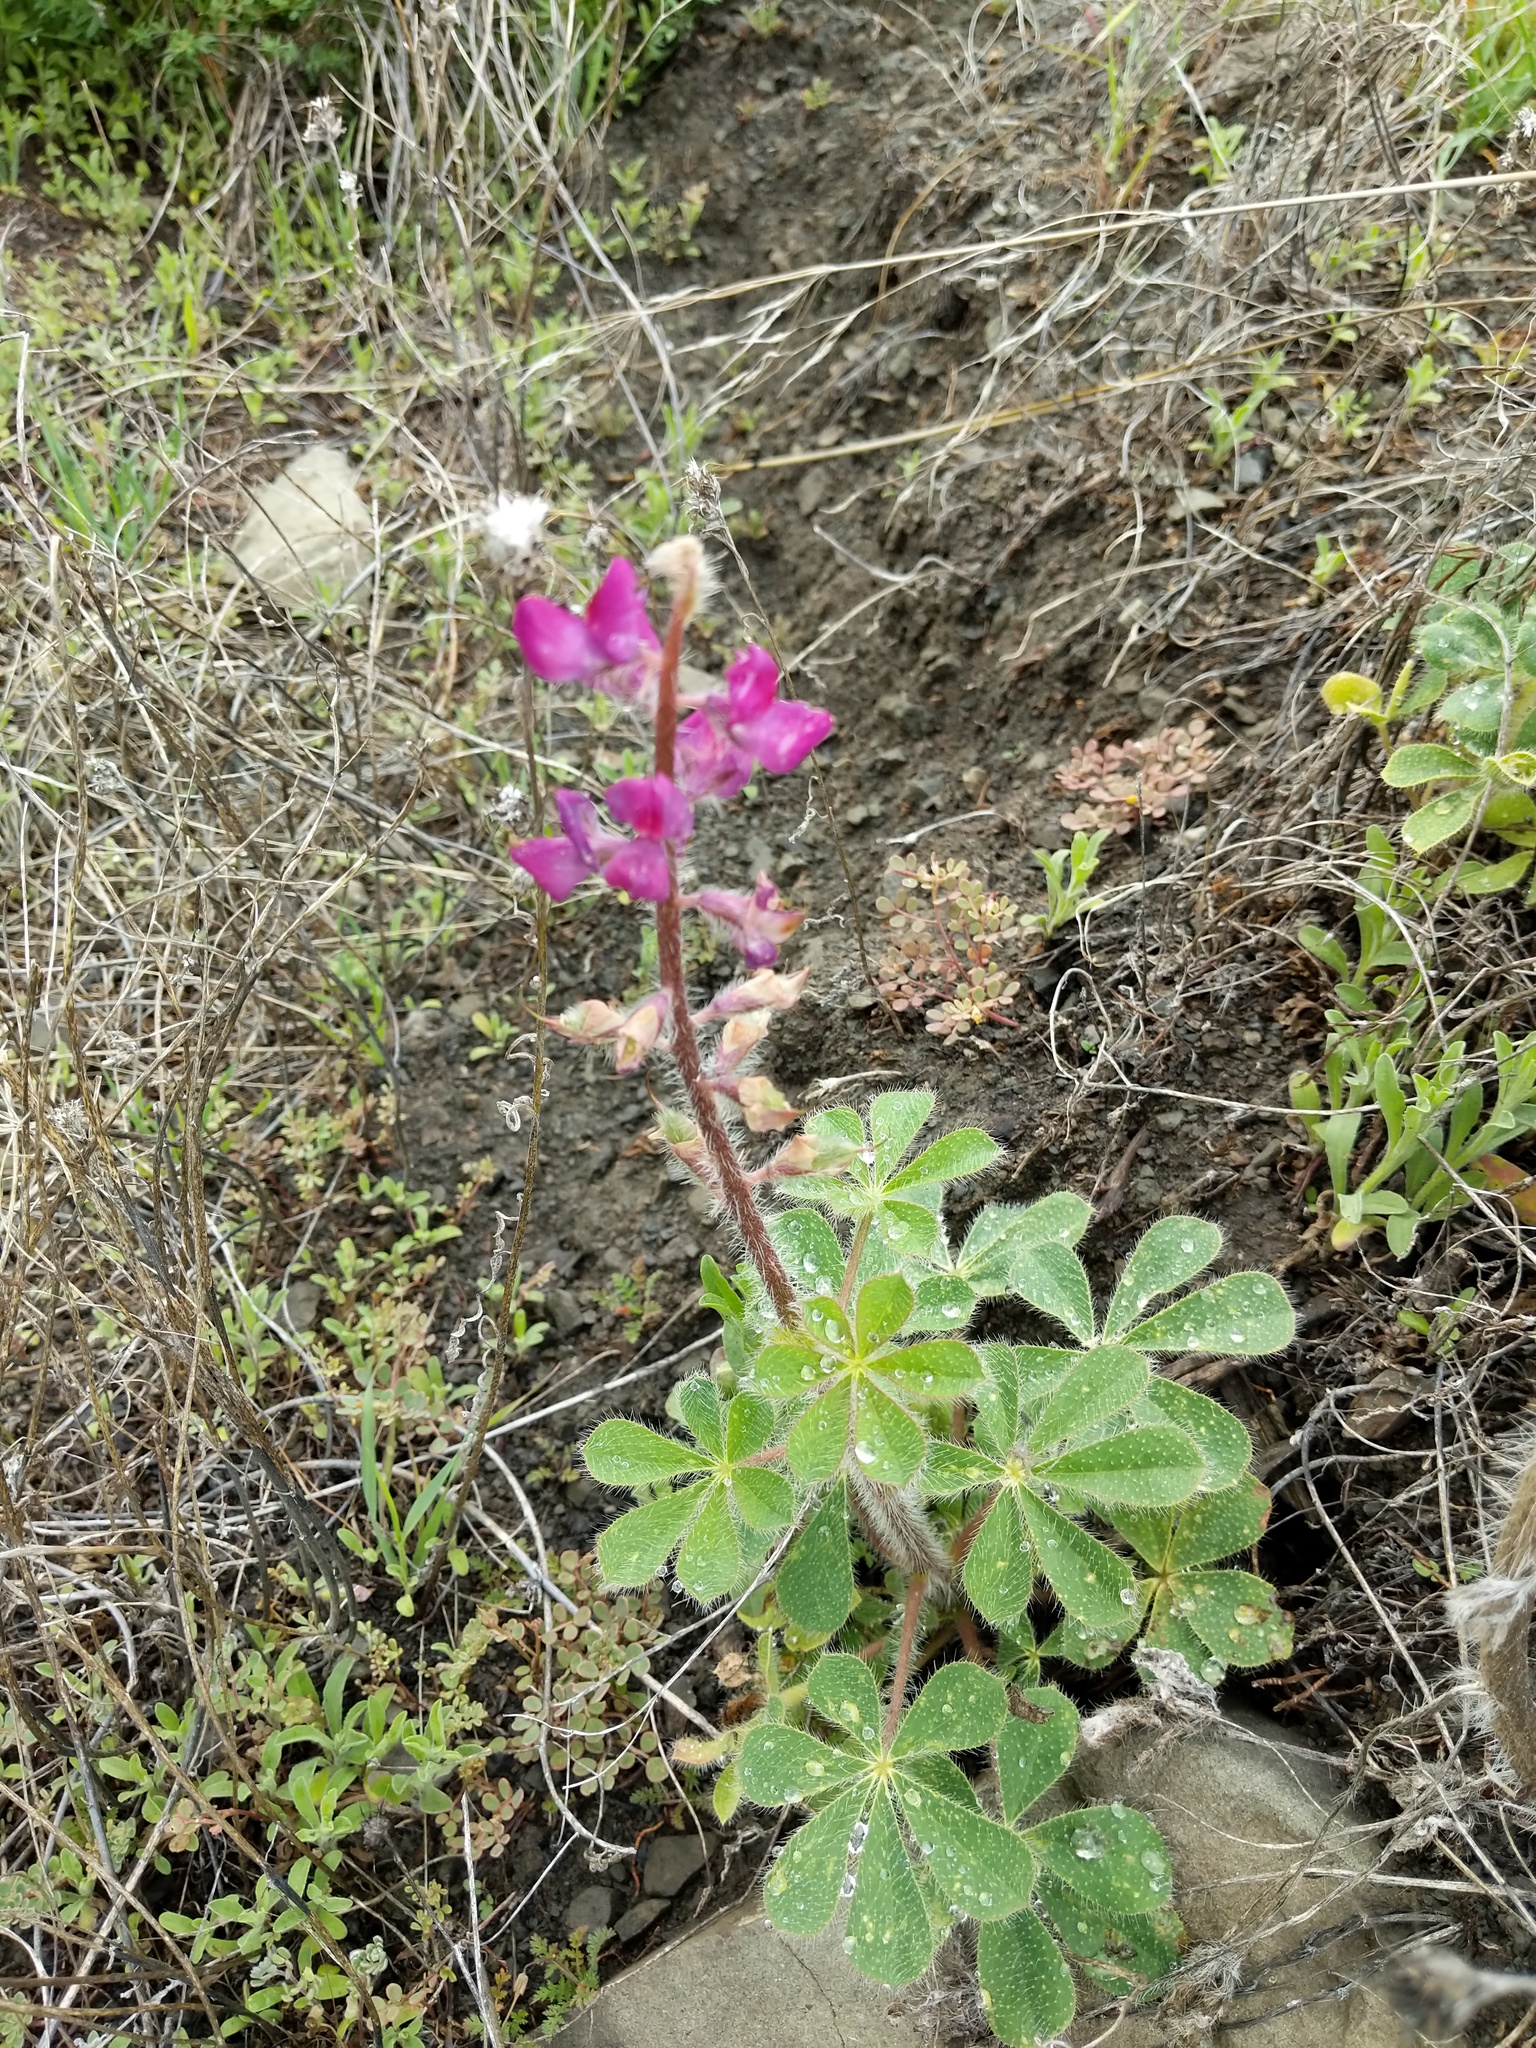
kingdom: Plantae
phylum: Tracheophyta
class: Magnoliopsida
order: Fabales
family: Fabaceae
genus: Lupinus
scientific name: Lupinus hirsutissimus
